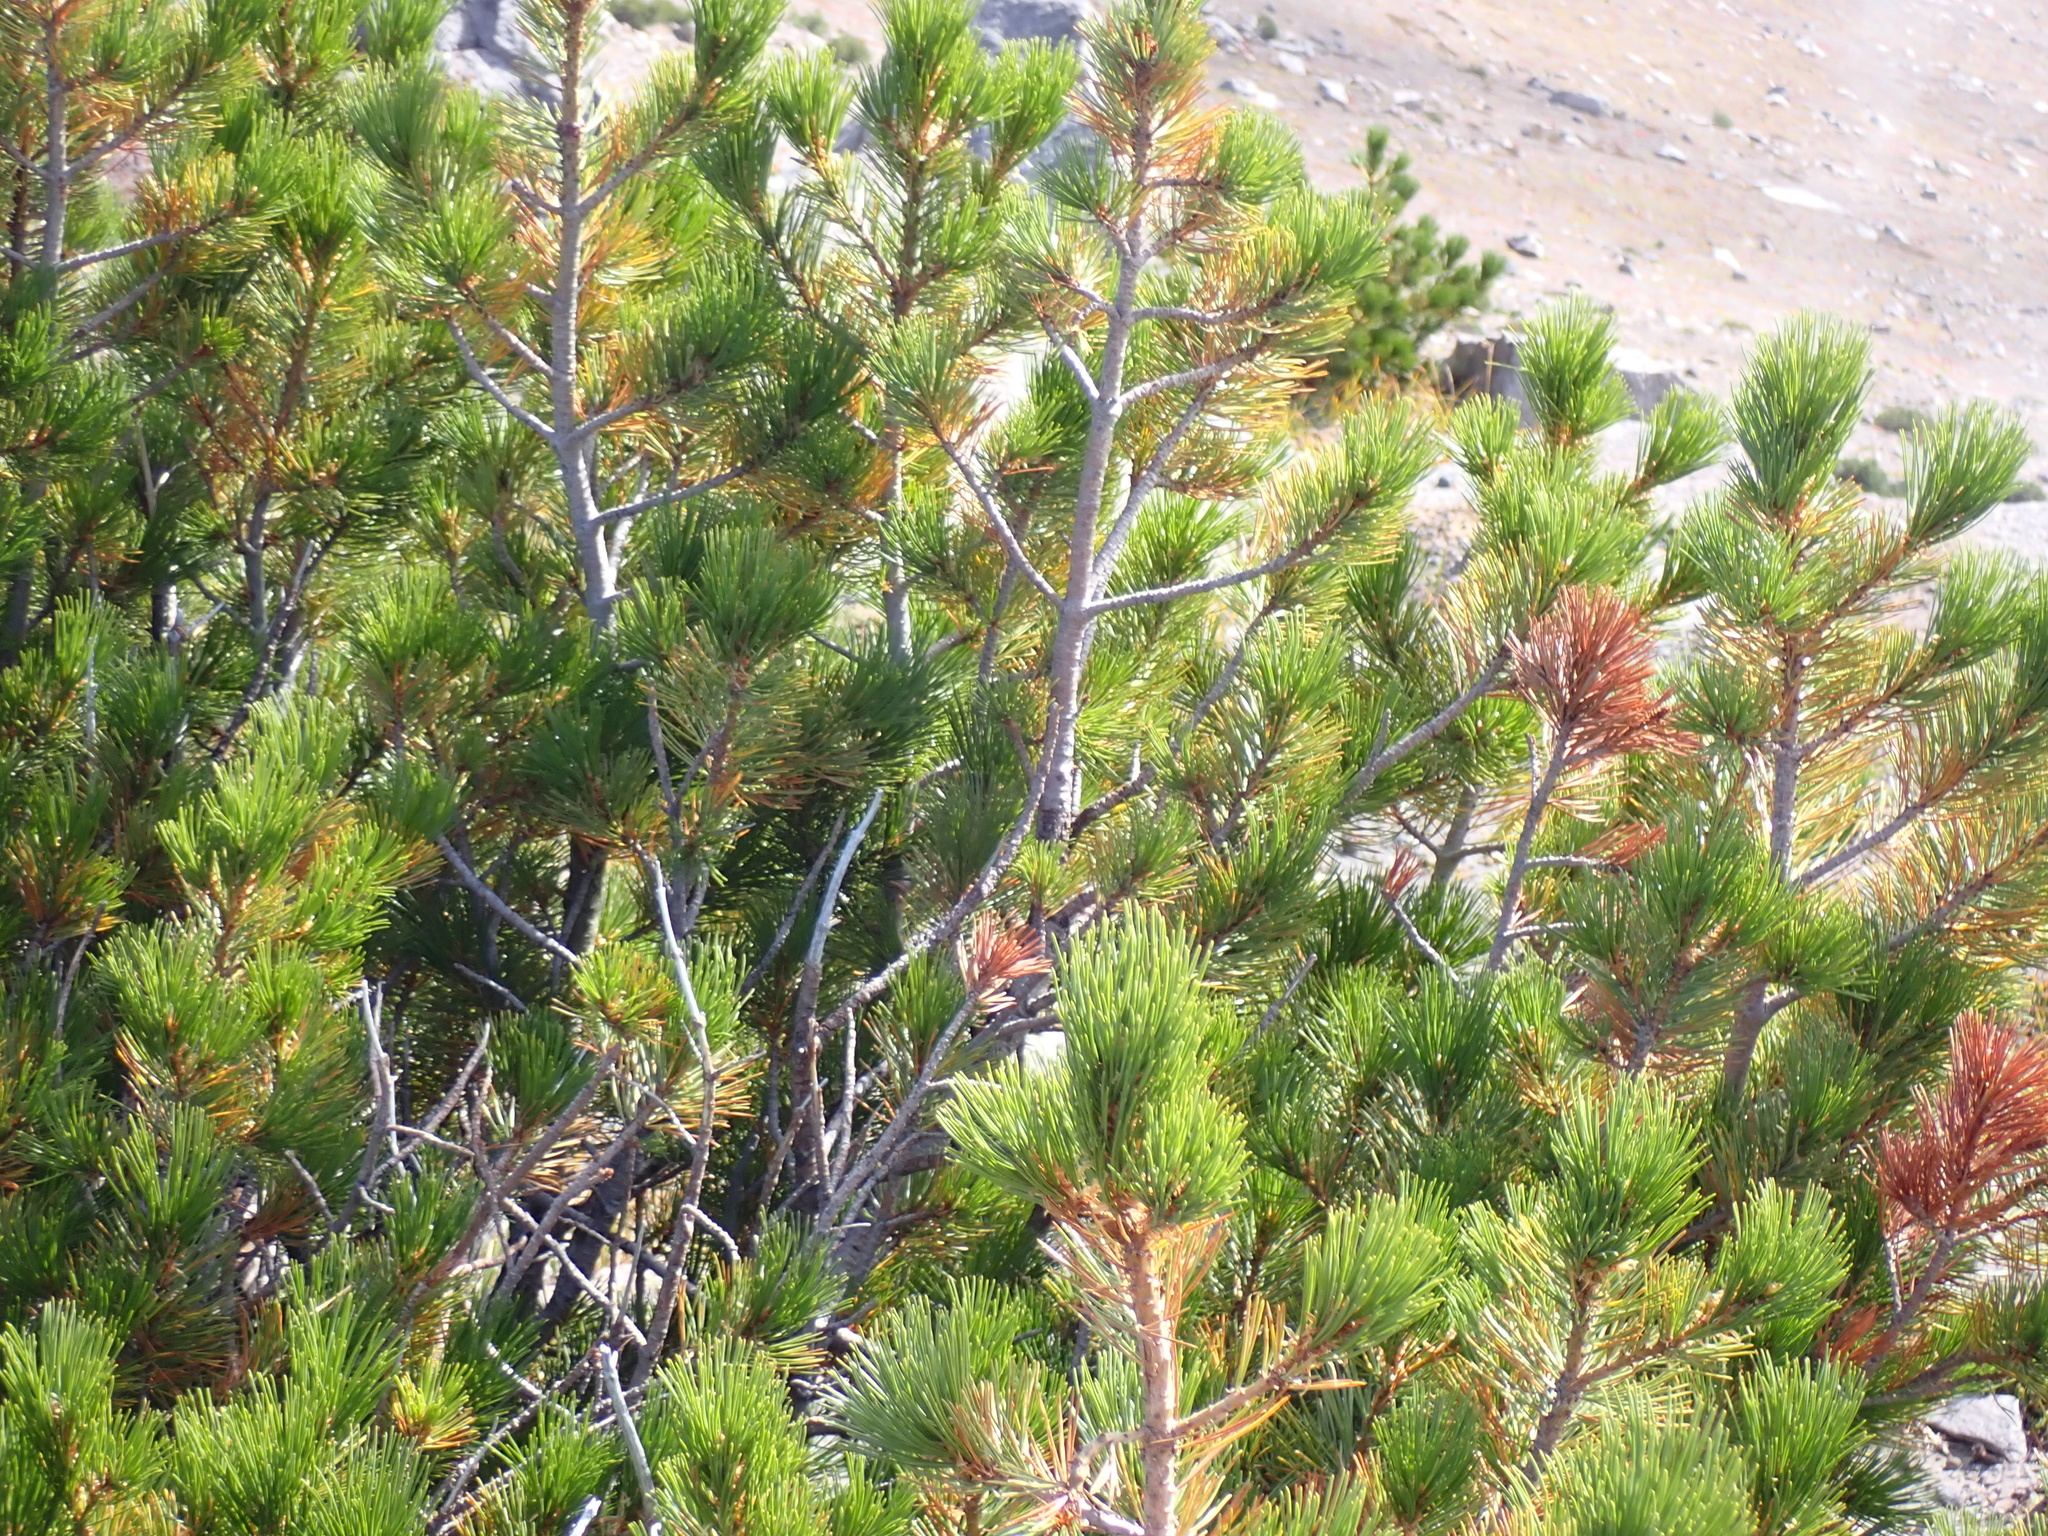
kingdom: Plantae
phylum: Tracheophyta
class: Pinopsida
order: Pinales
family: Pinaceae
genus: Pinus
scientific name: Pinus albicaulis
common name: Whitebark pine
